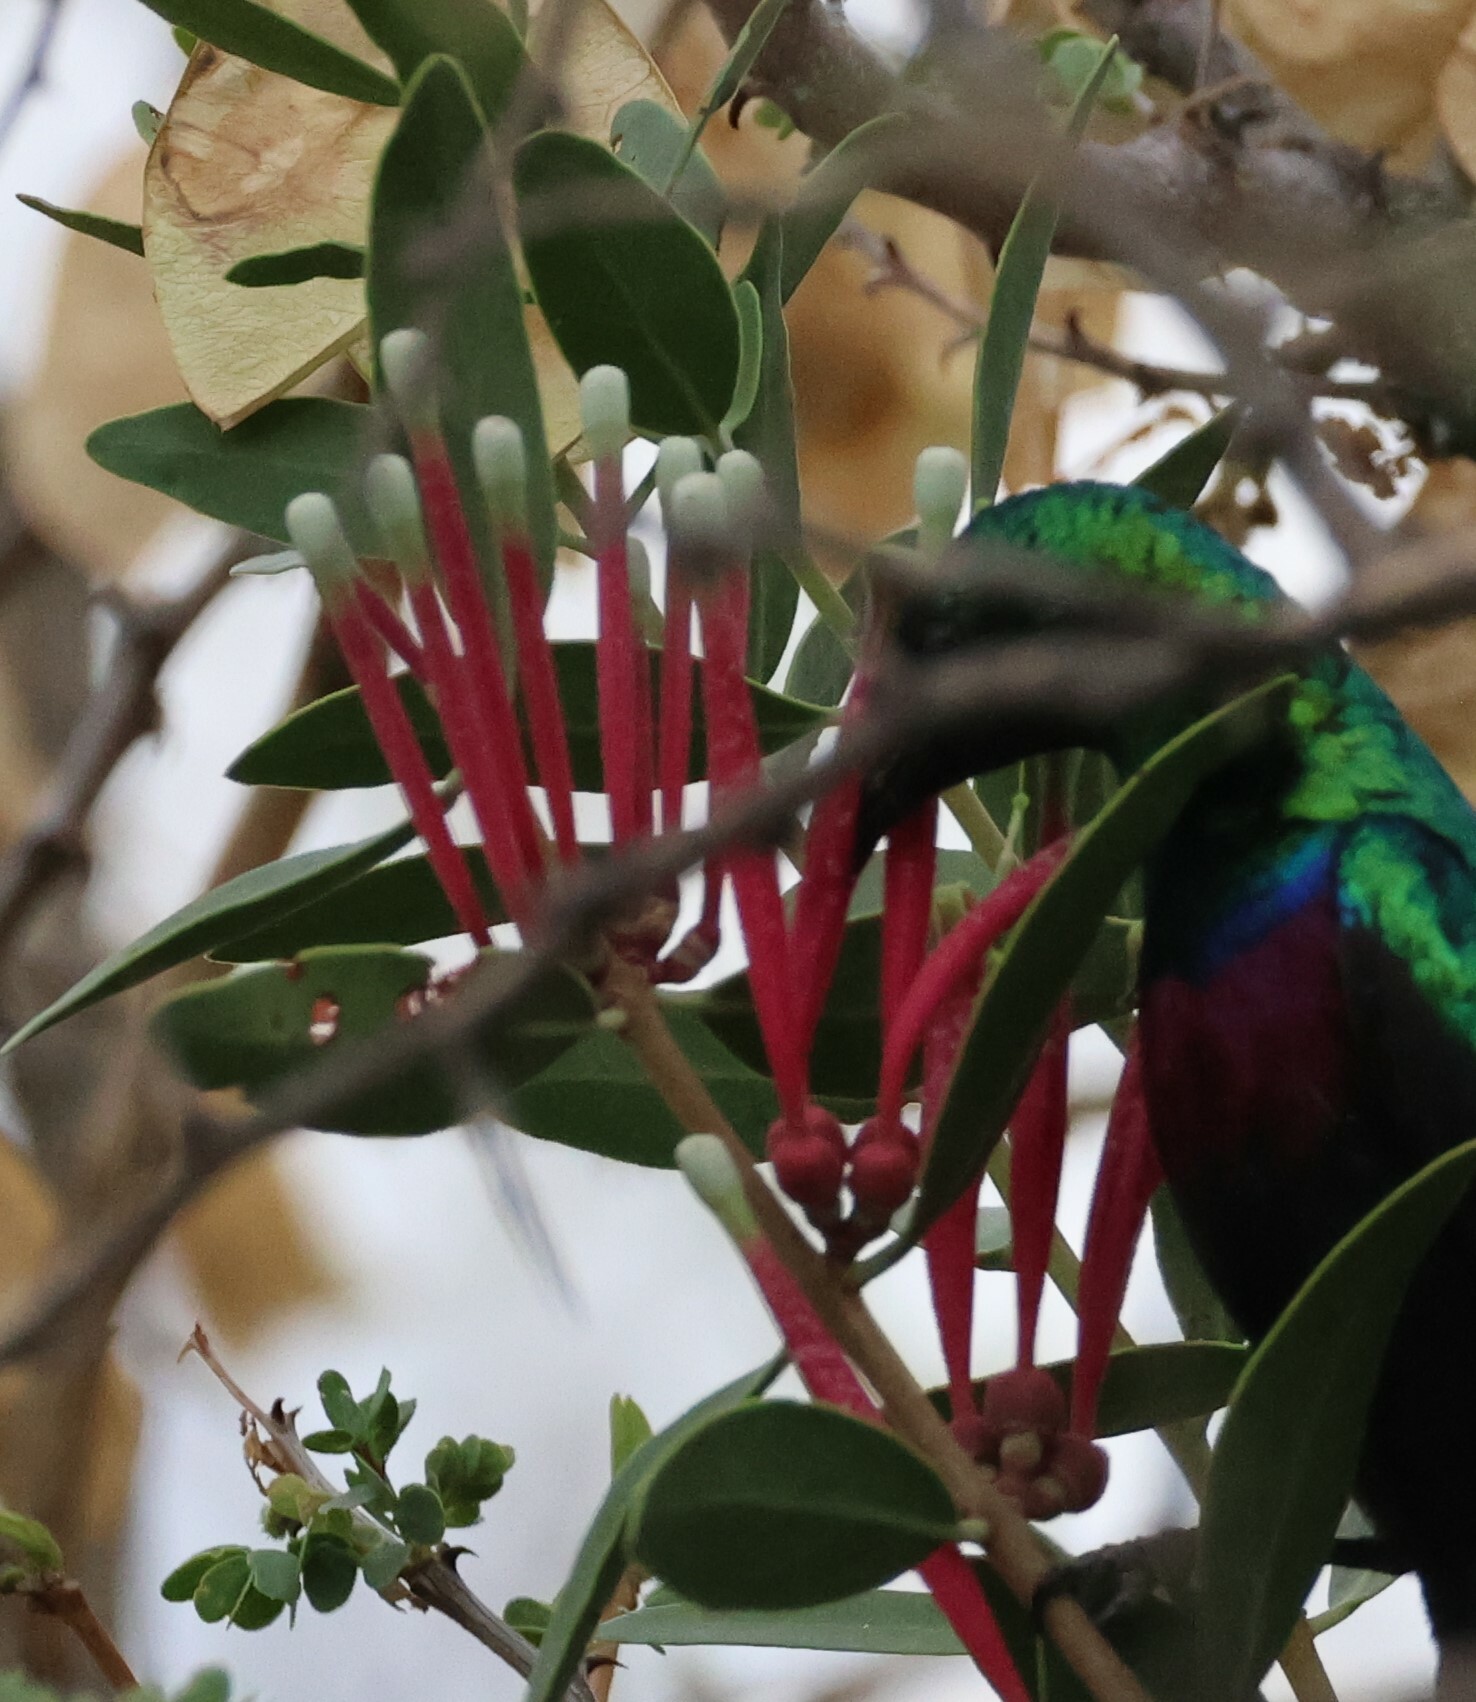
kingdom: Plantae
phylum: Tracheophyta
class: Magnoliopsida
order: Santalales
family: Loranthaceae
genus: Tapinanthus
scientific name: Tapinanthus oleifolius
